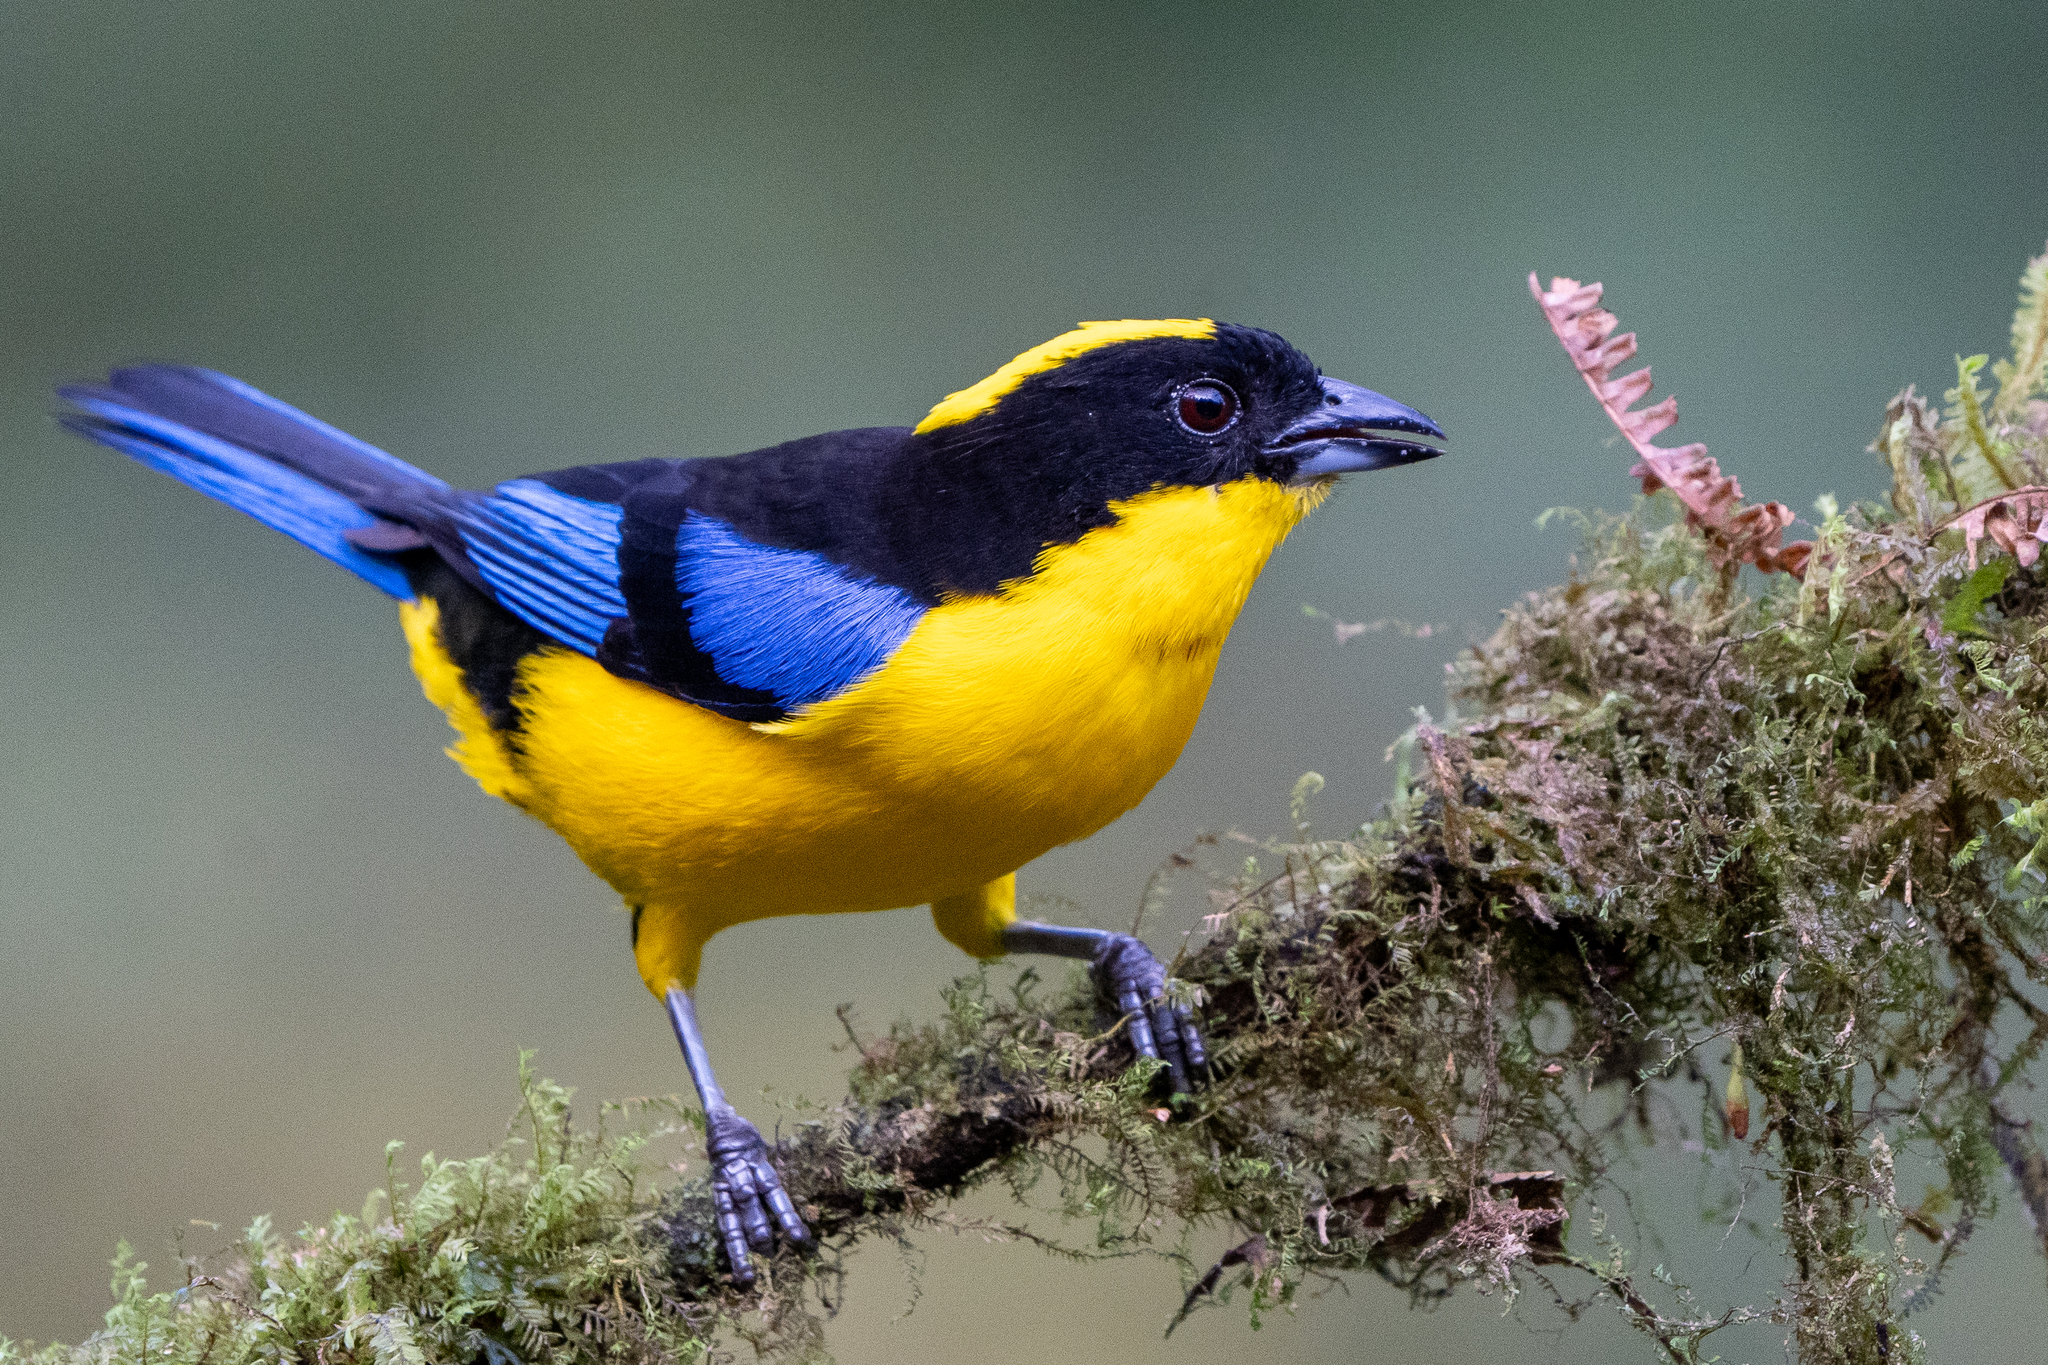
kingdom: Animalia
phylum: Chordata
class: Aves
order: Passeriformes
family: Thraupidae
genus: Anisognathus
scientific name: Anisognathus somptuosus
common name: Blue-winged mountain-tanager
